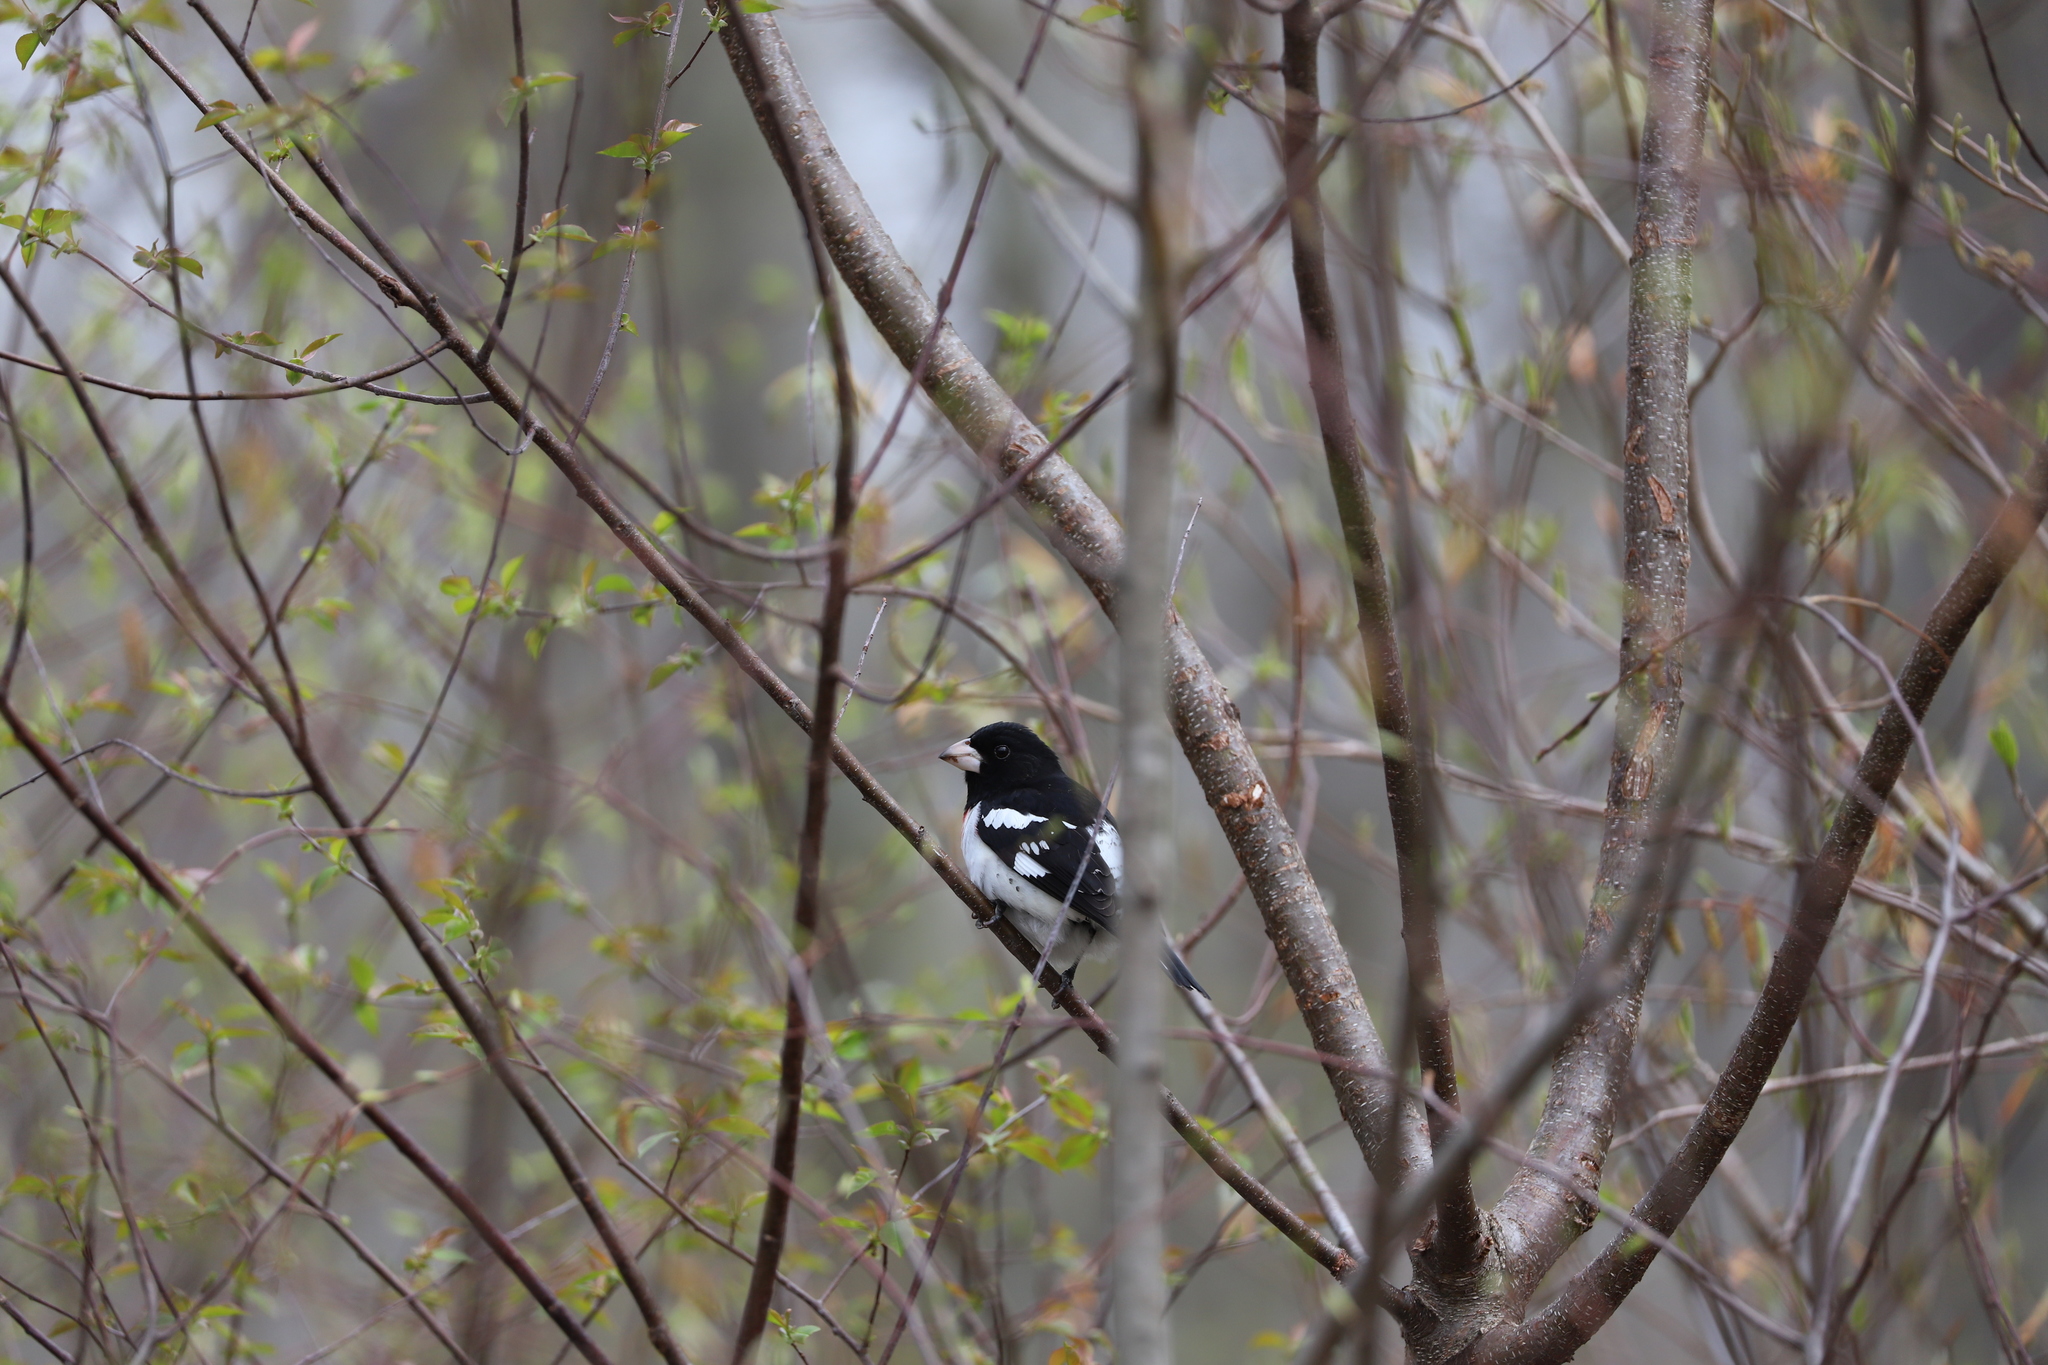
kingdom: Animalia
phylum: Chordata
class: Aves
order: Passeriformes
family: Cardinalidae
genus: Pheucticus
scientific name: Pheucticus ludovicianus
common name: Rose-breasted grosbeak
